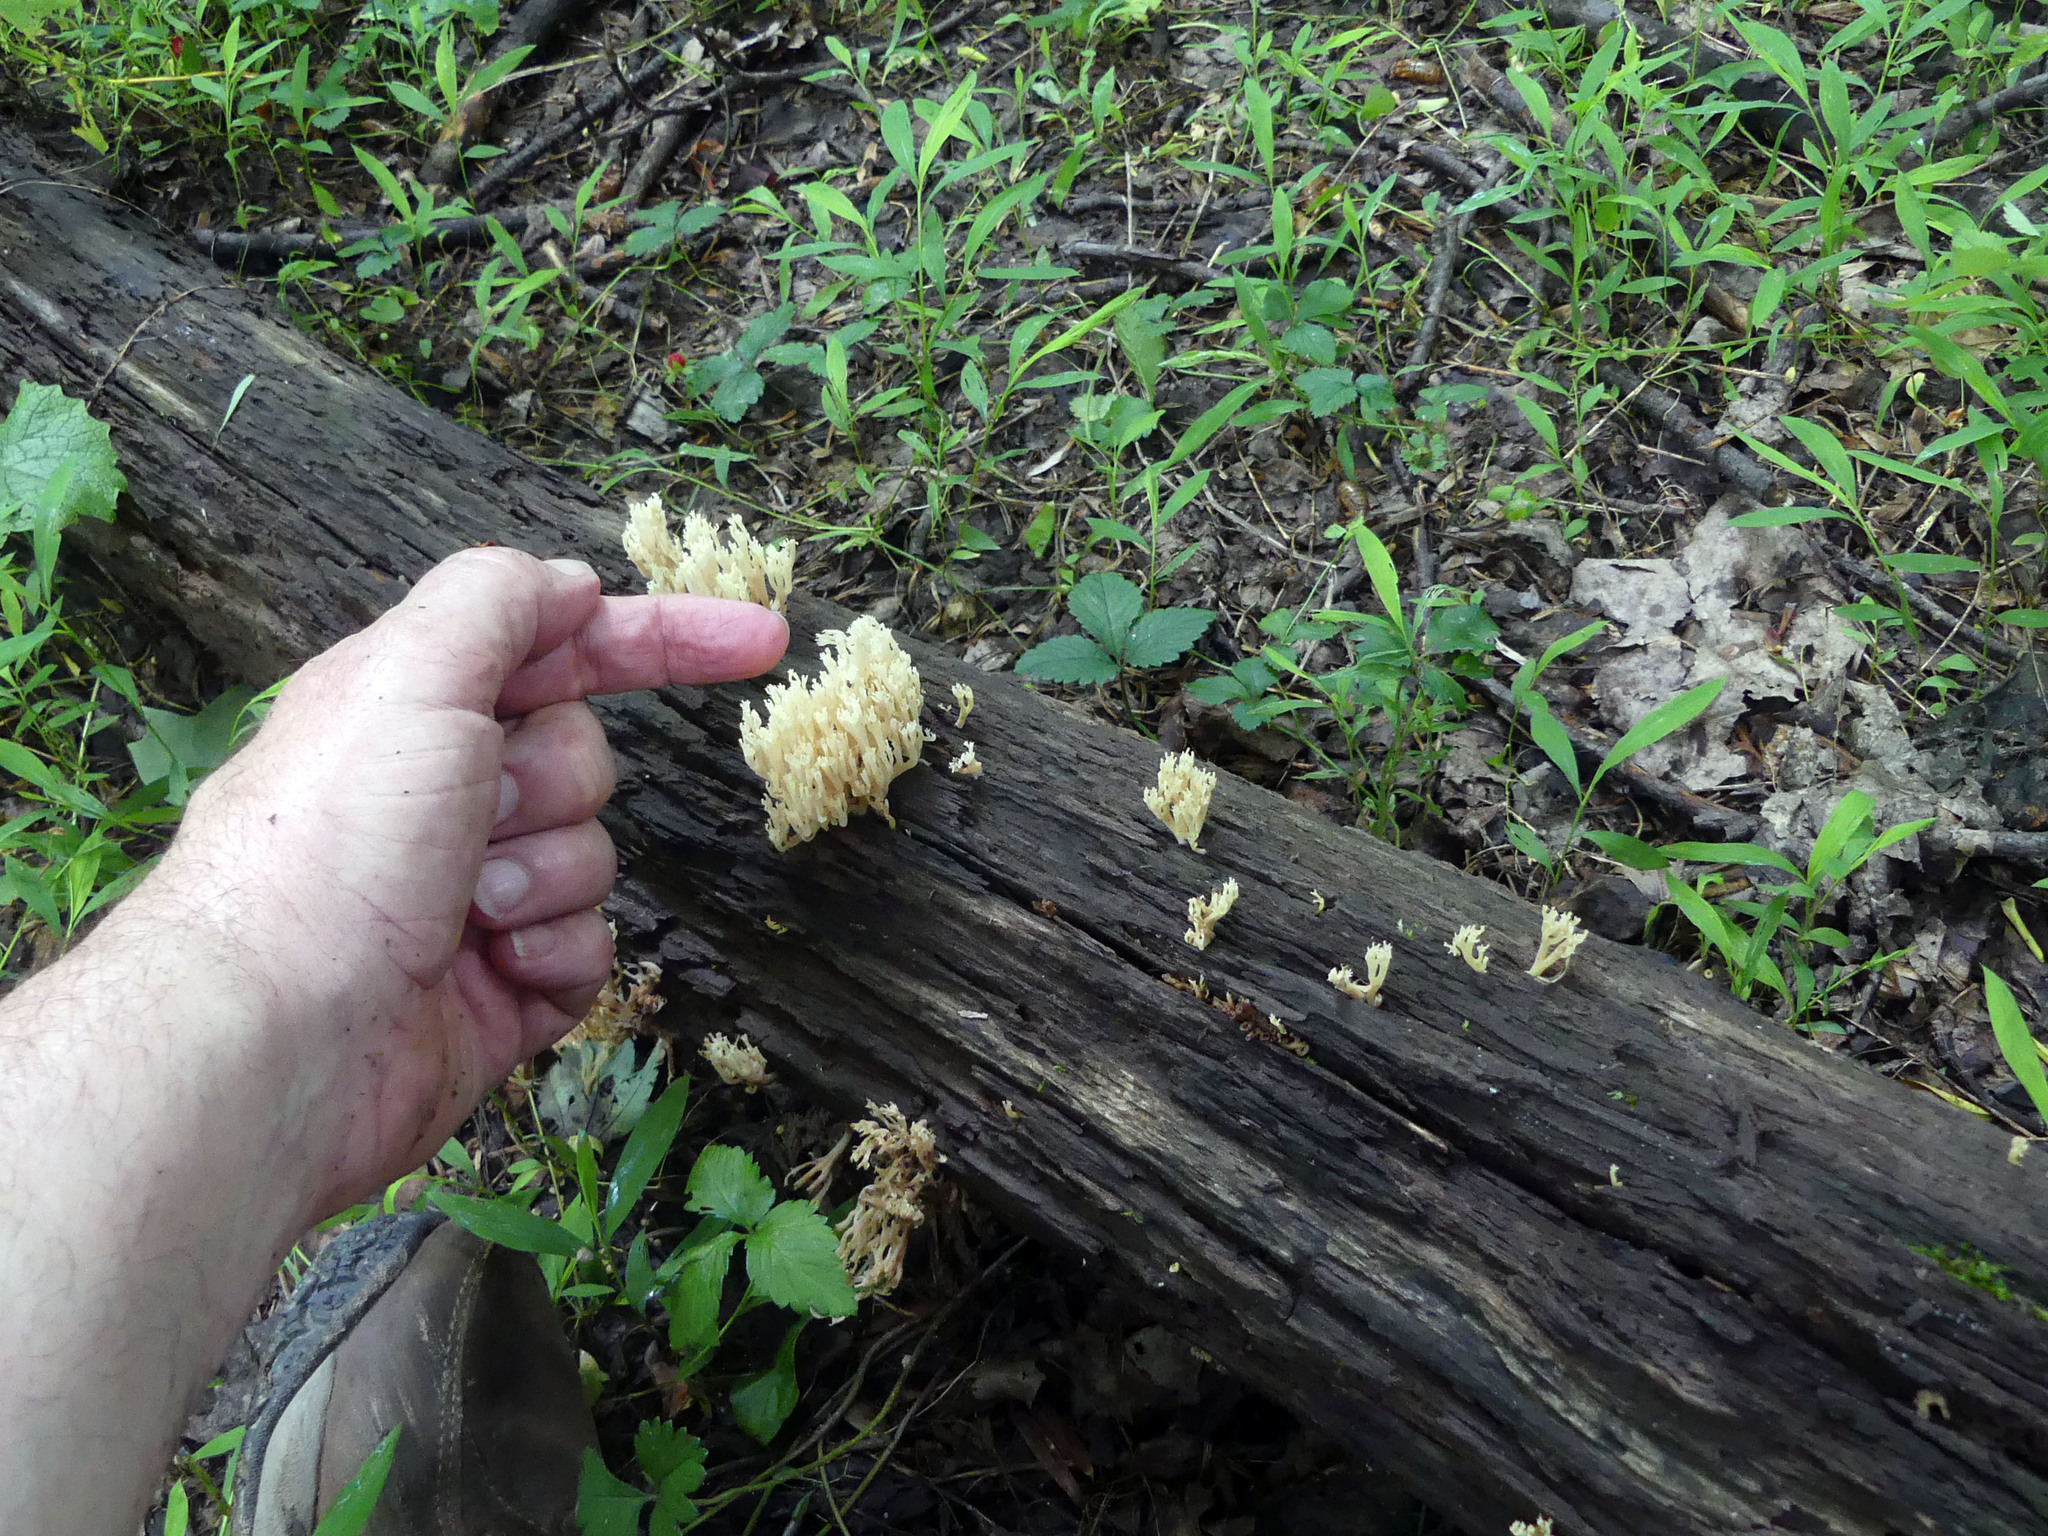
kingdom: Fungi
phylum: Basidiomycota
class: Agaricomycetes
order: Russulales
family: Auriscalpiaceae
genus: Artomyces
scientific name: Artomyces pyxidatus
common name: Crown-tipped coral fungus
